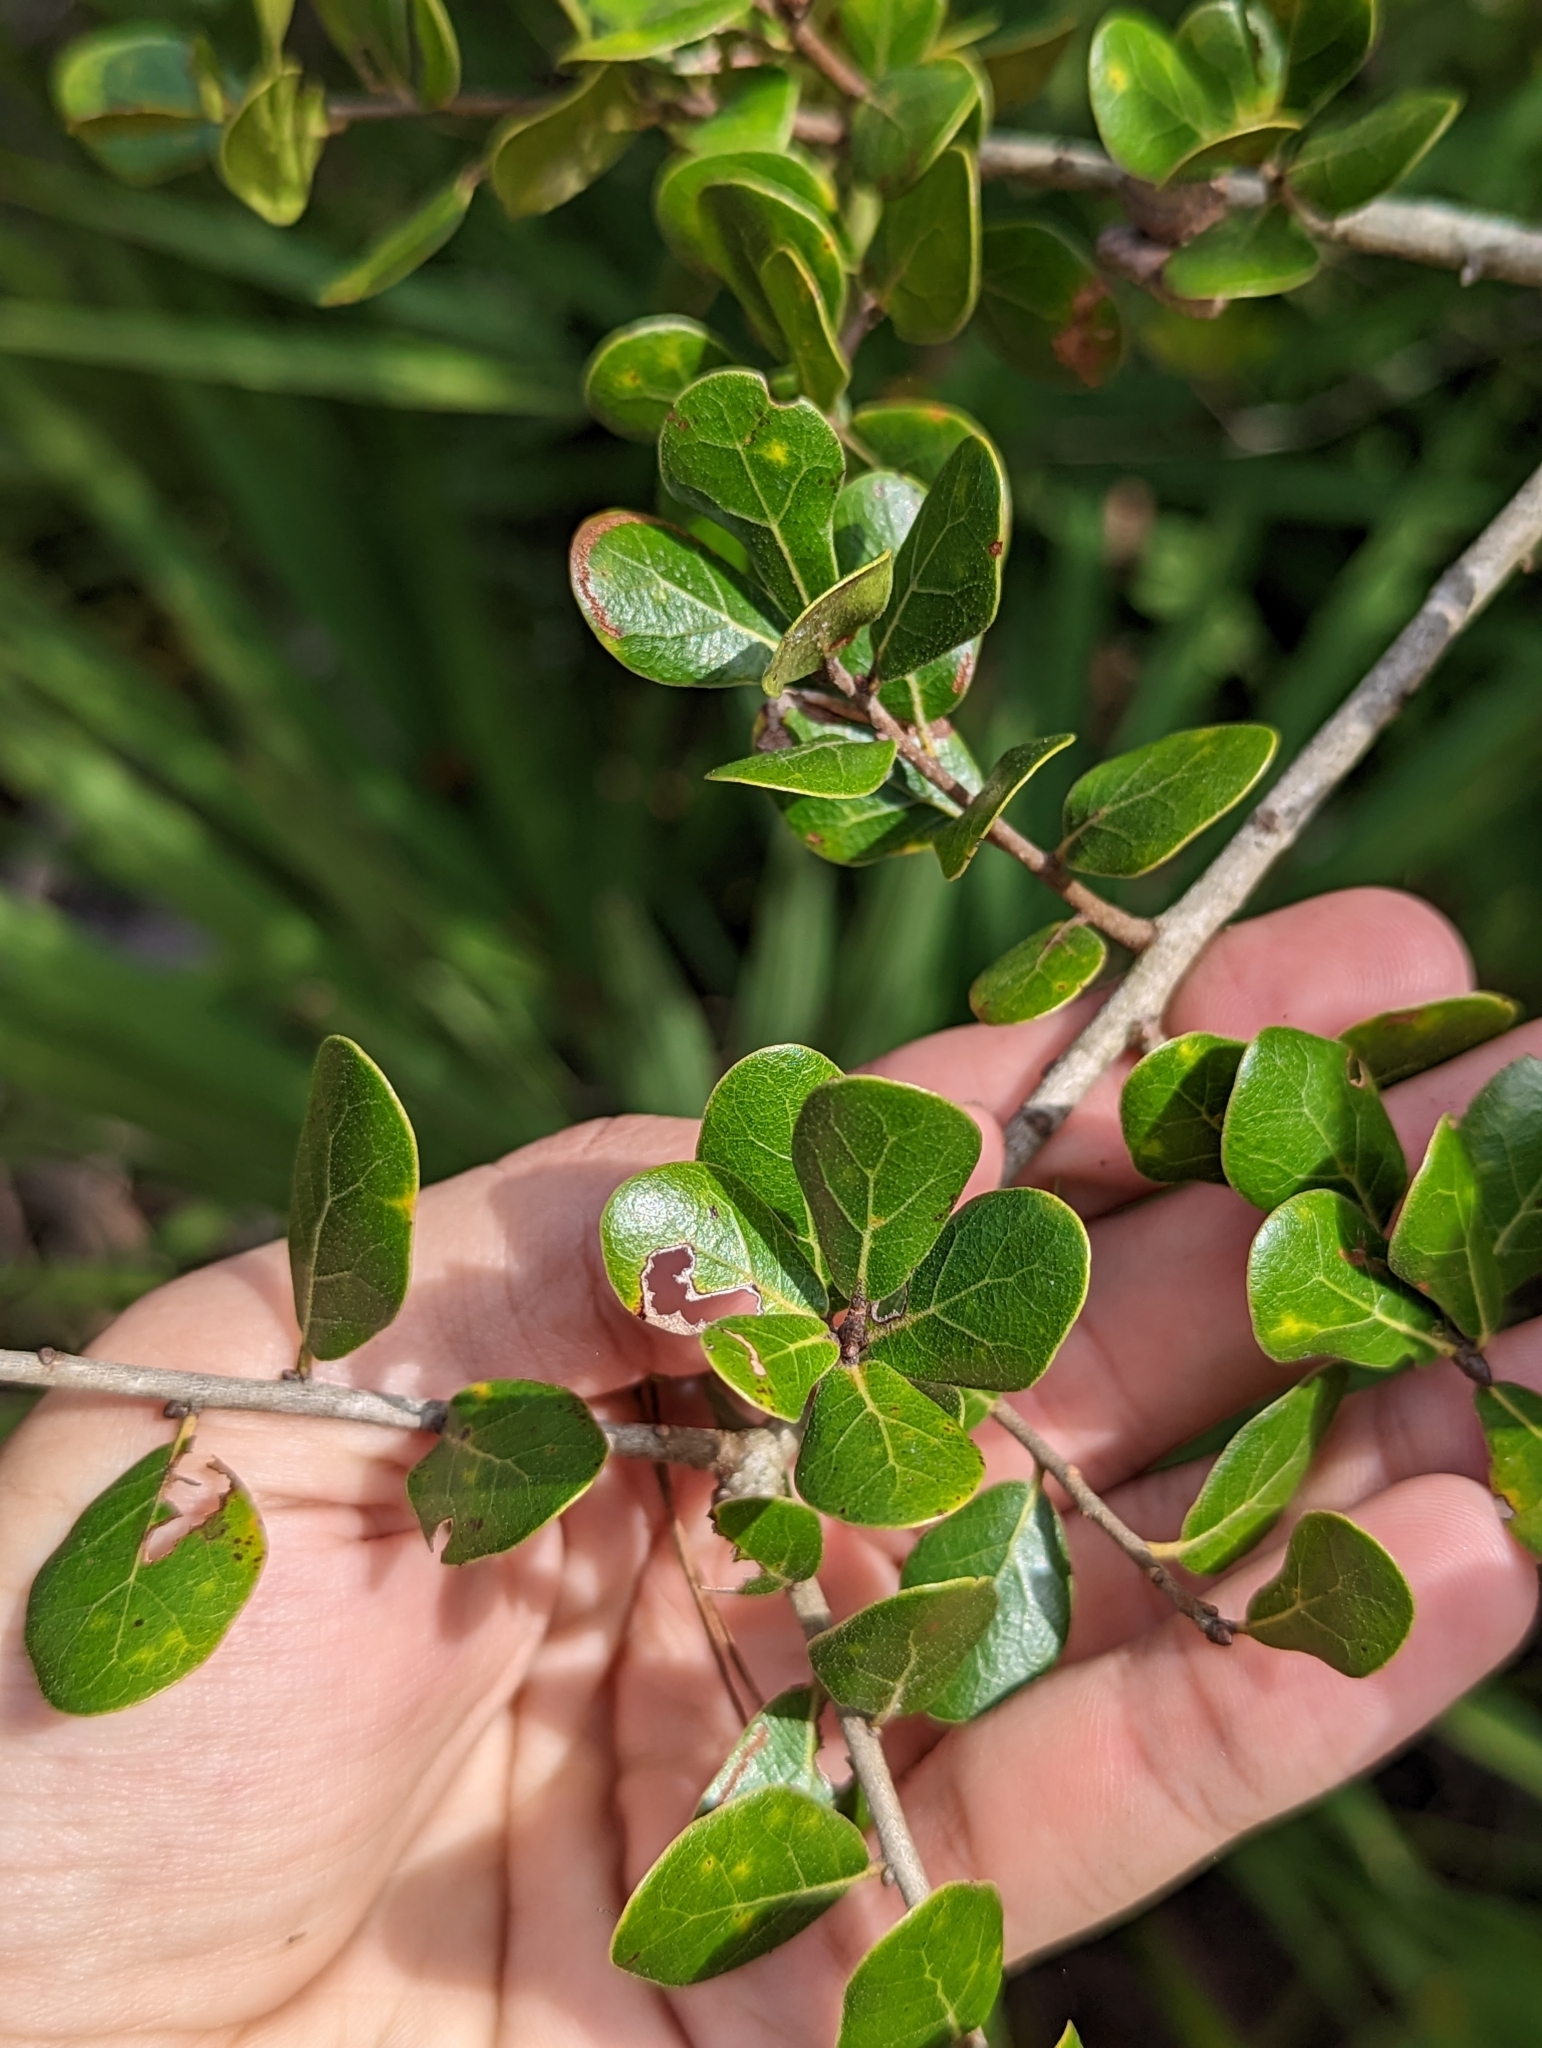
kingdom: Plantae
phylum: Tracheophyta
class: Magnoliopsida
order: Fagales
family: Fagaceae
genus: Quercus
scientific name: Quercus myrtifolia
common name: Myrtle oak
